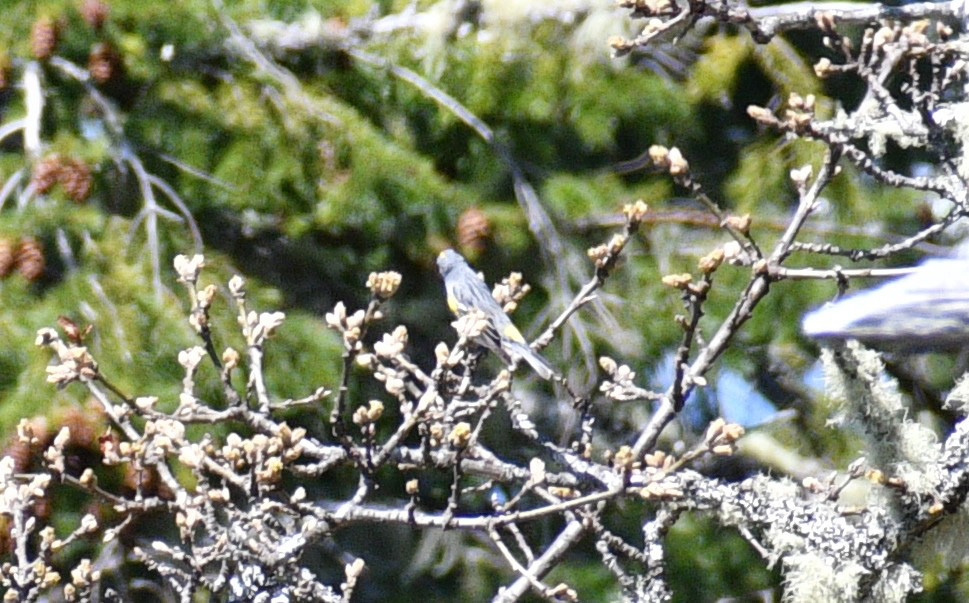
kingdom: Animalia
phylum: Chordata
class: Aves
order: Passeriformes
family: Parulidae
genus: Setophaga
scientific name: Setophaga auduboni
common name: Audubon's warbler
